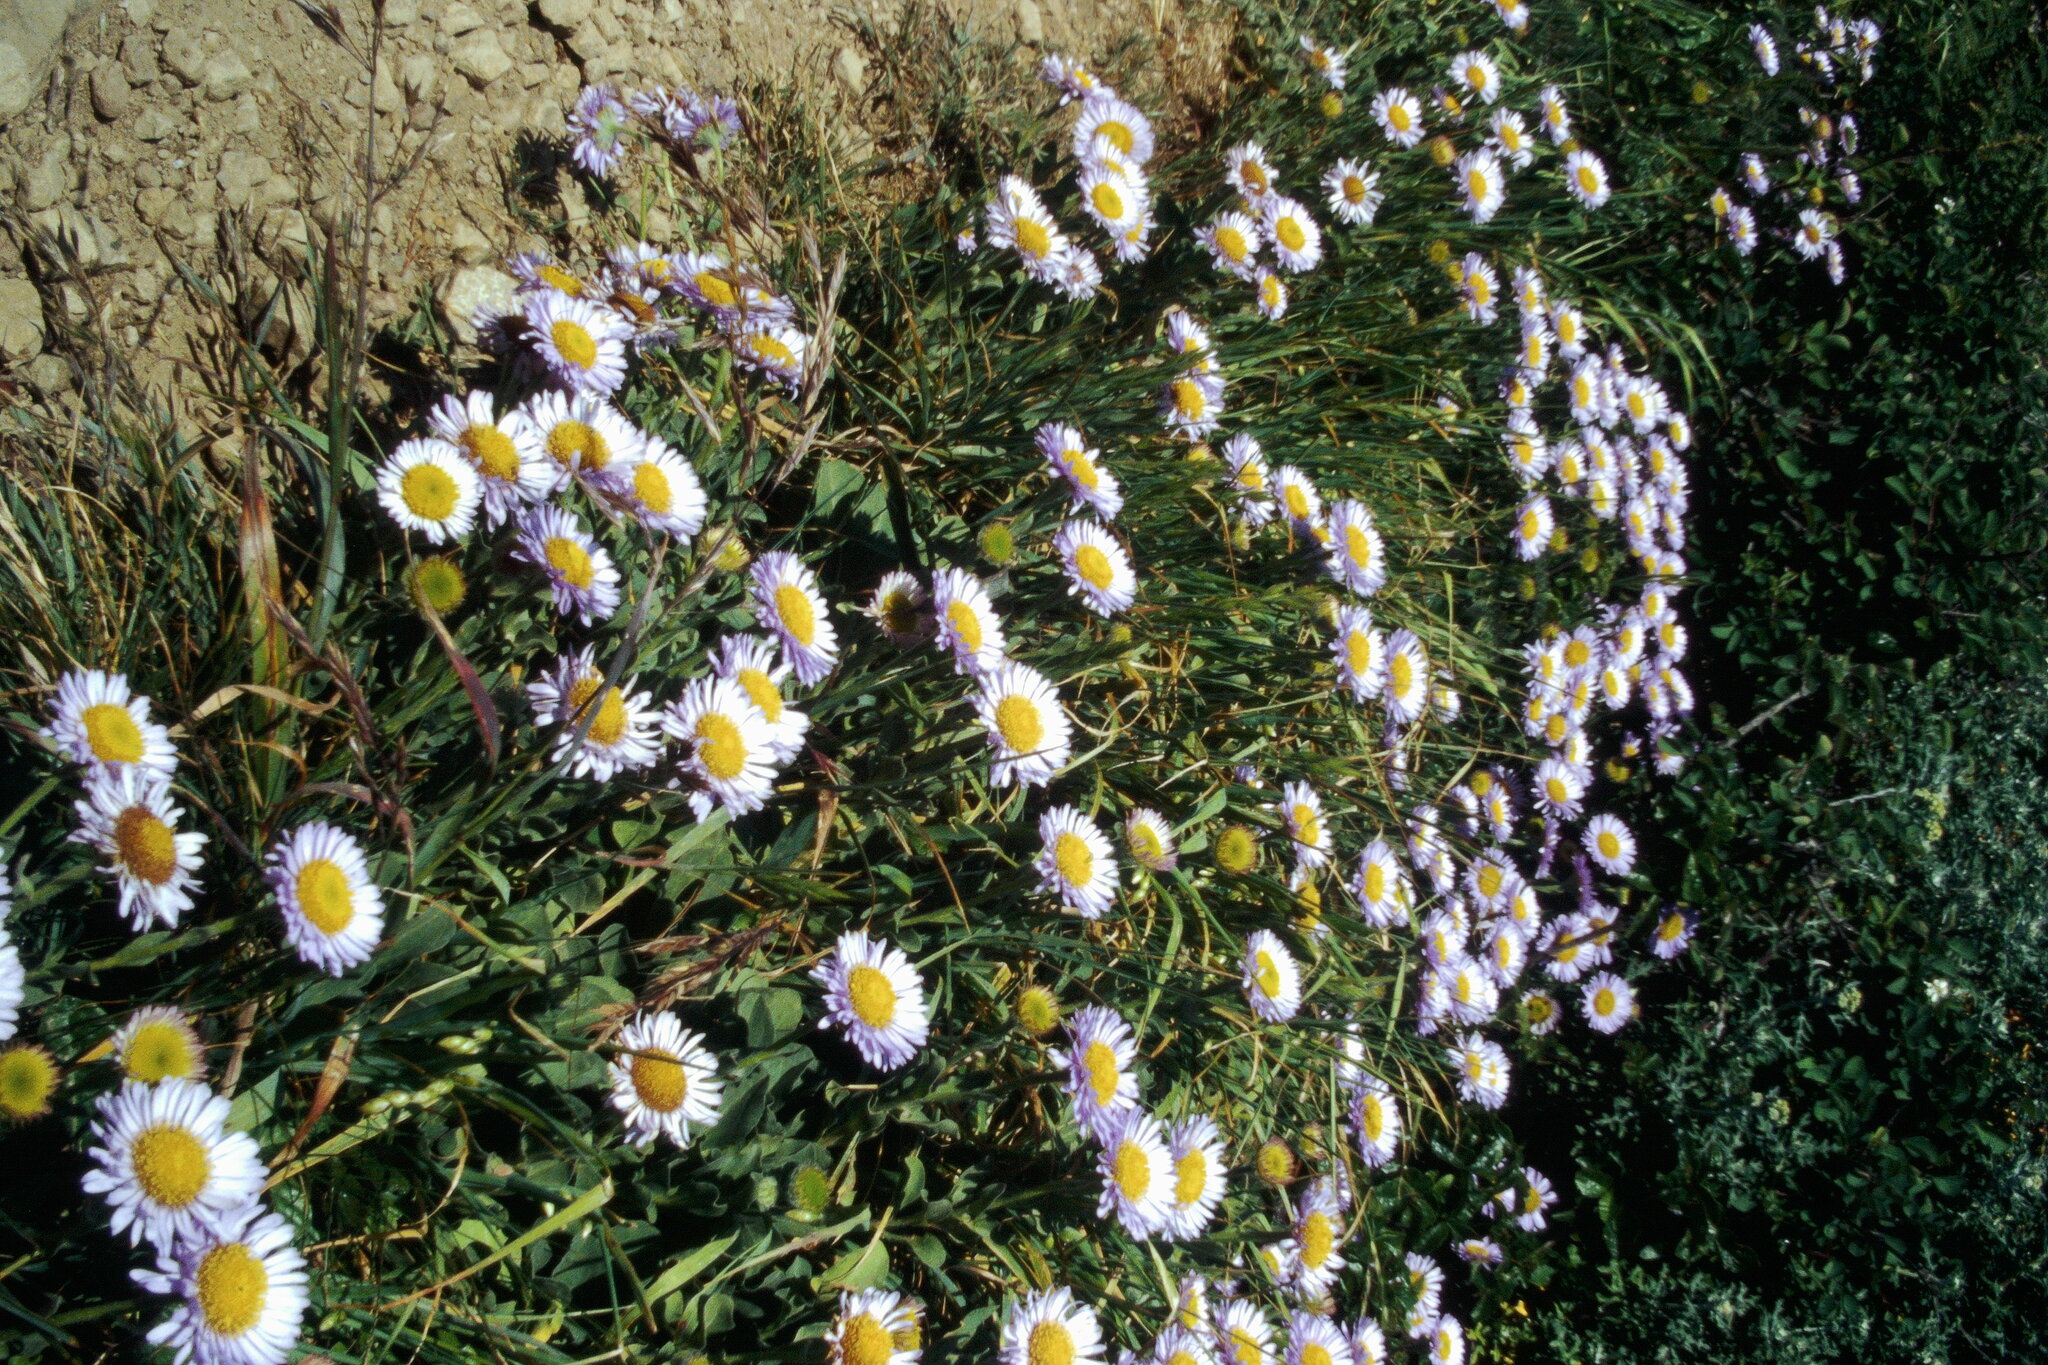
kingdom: Plantae
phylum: Tracheophyta
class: Magnoliopsida
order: Asterales
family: Asteraceae
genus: Erigeron
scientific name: Erigeron glaucus
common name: Seaside daisy
